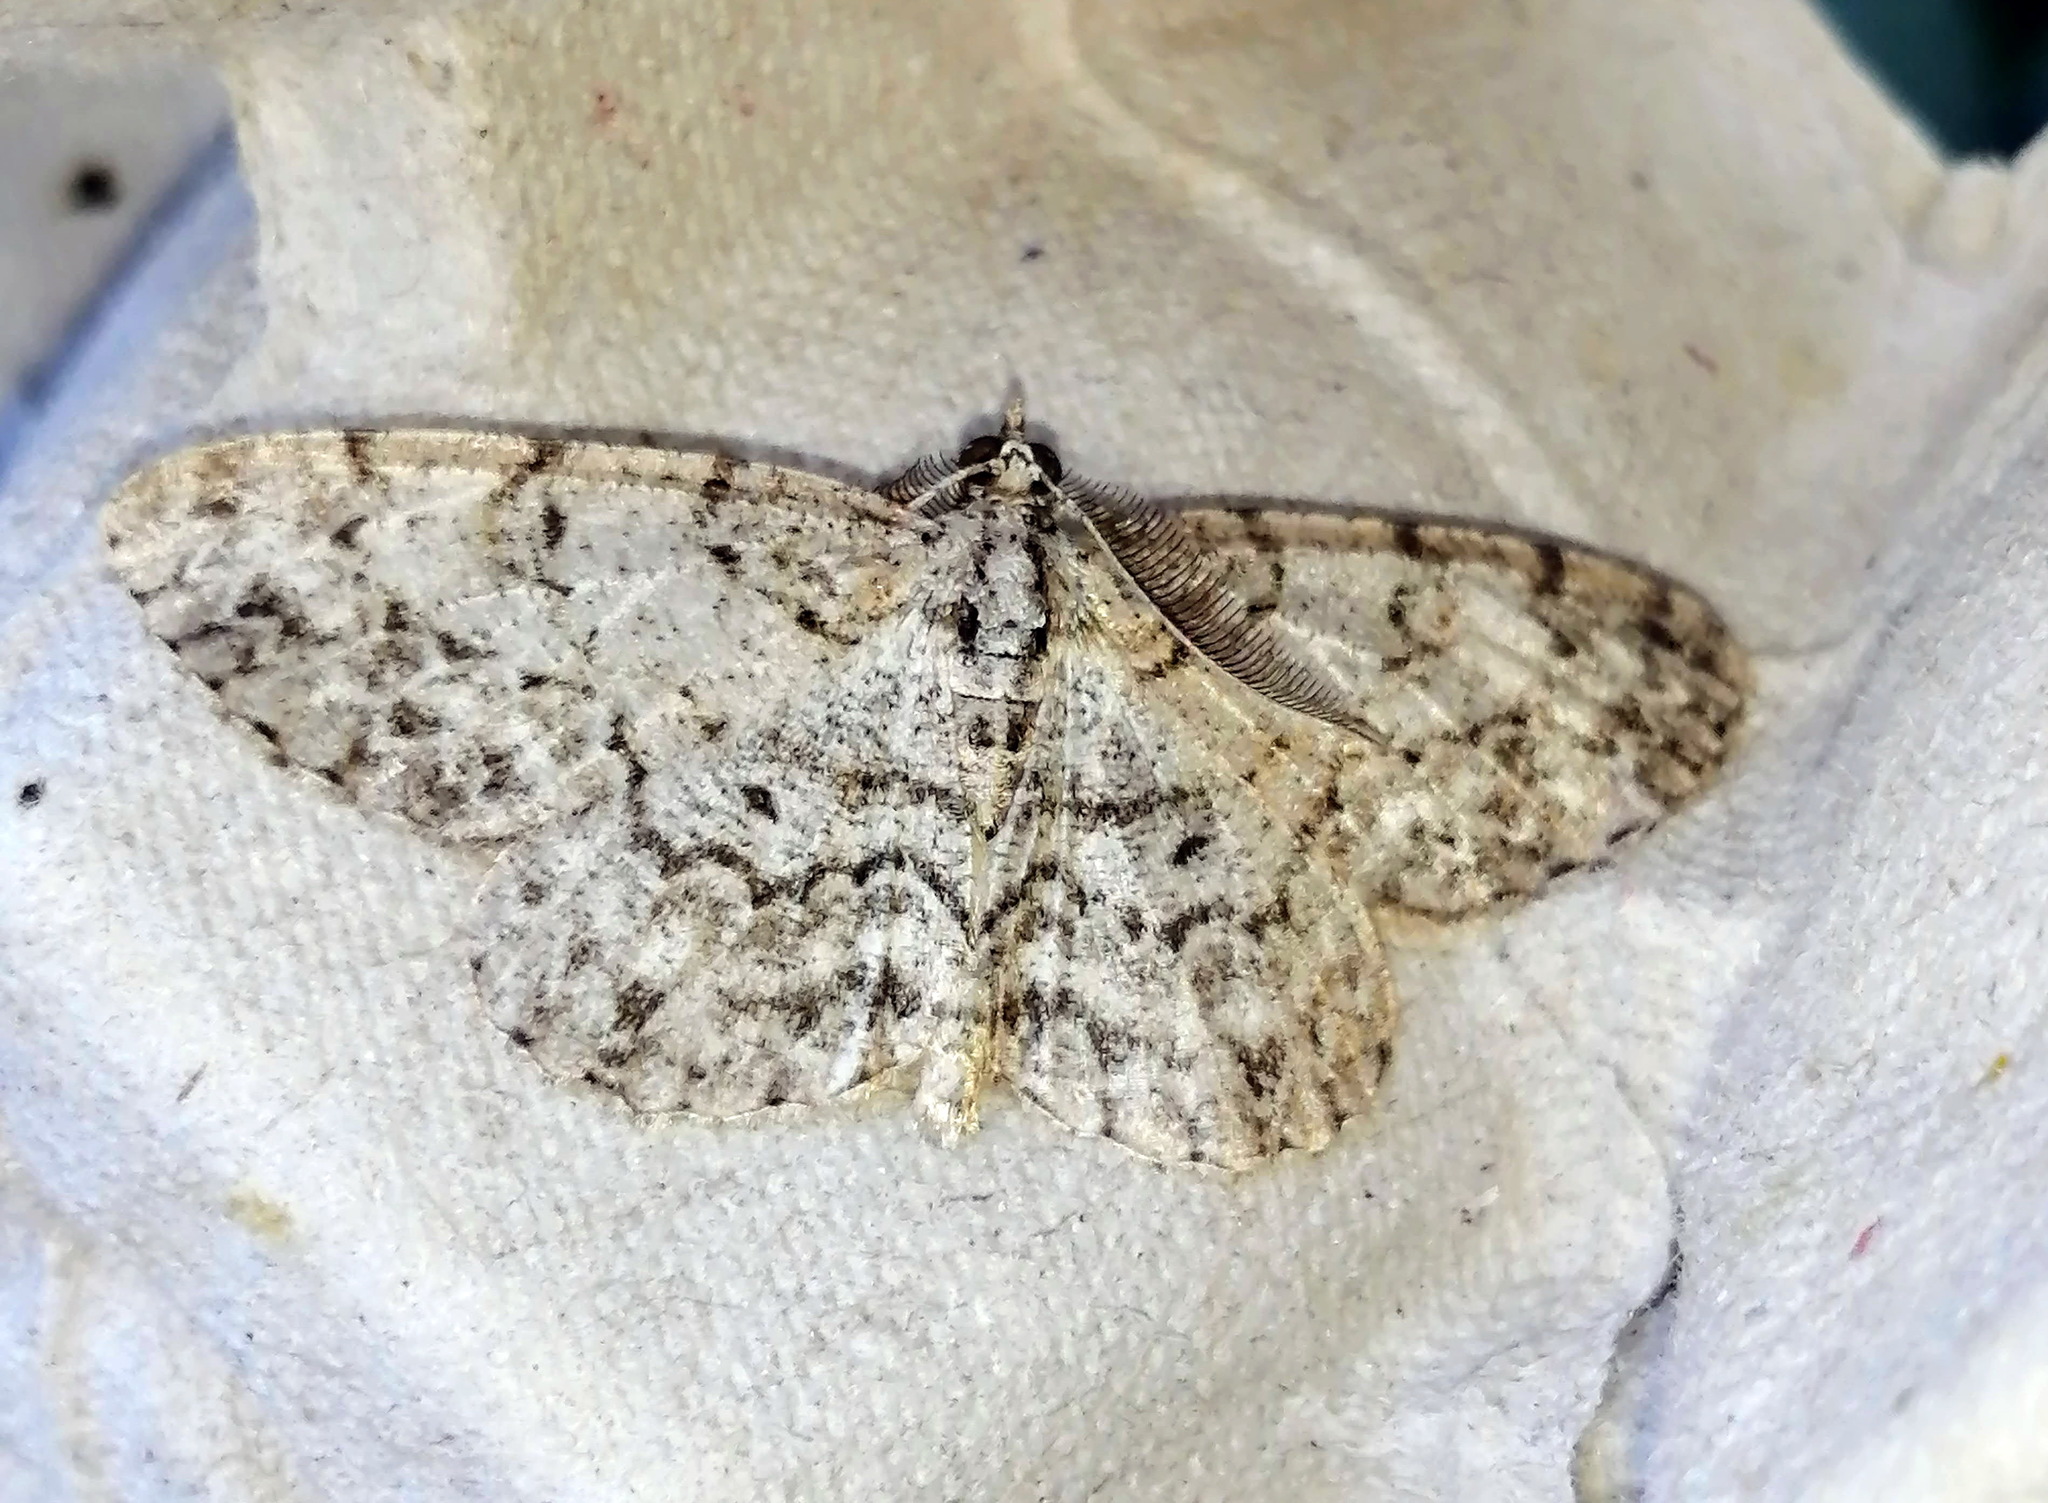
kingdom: Animalia
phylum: Arthropoda
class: Insecta
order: Lepidoptera
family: Geometridae
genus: Protoboarmia
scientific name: Protoboarmia porcelaria
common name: Porcelain gray
